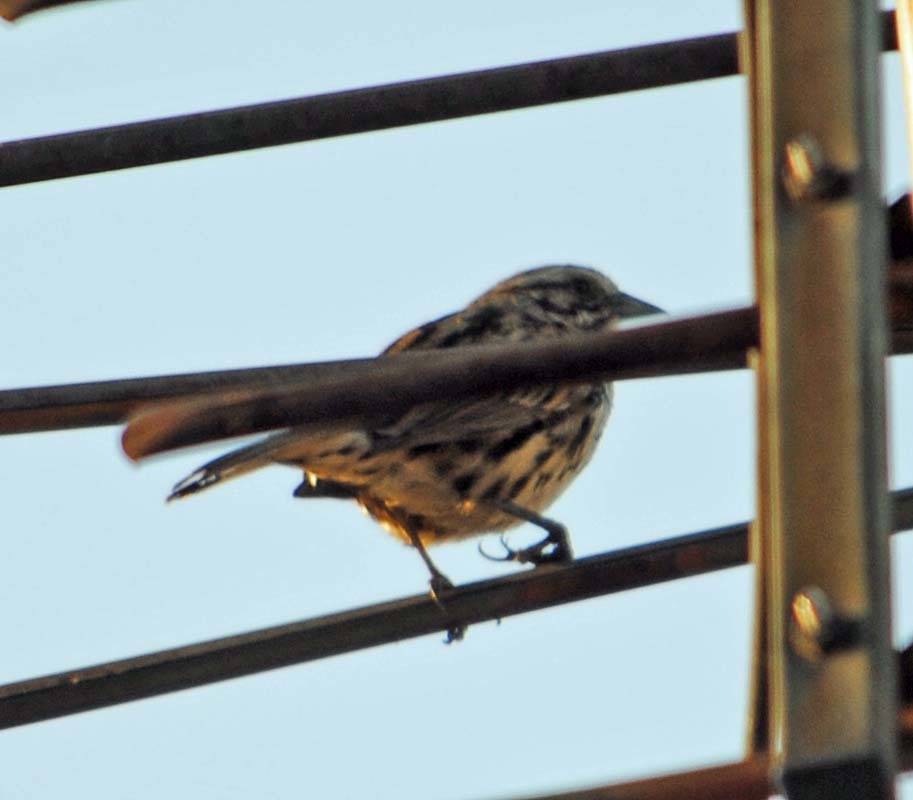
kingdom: Animalia
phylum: Chordata
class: Aves
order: Passeriformes
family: Passerellidae
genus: Melospiza
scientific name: Melospiza melodia
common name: Song sparrow
